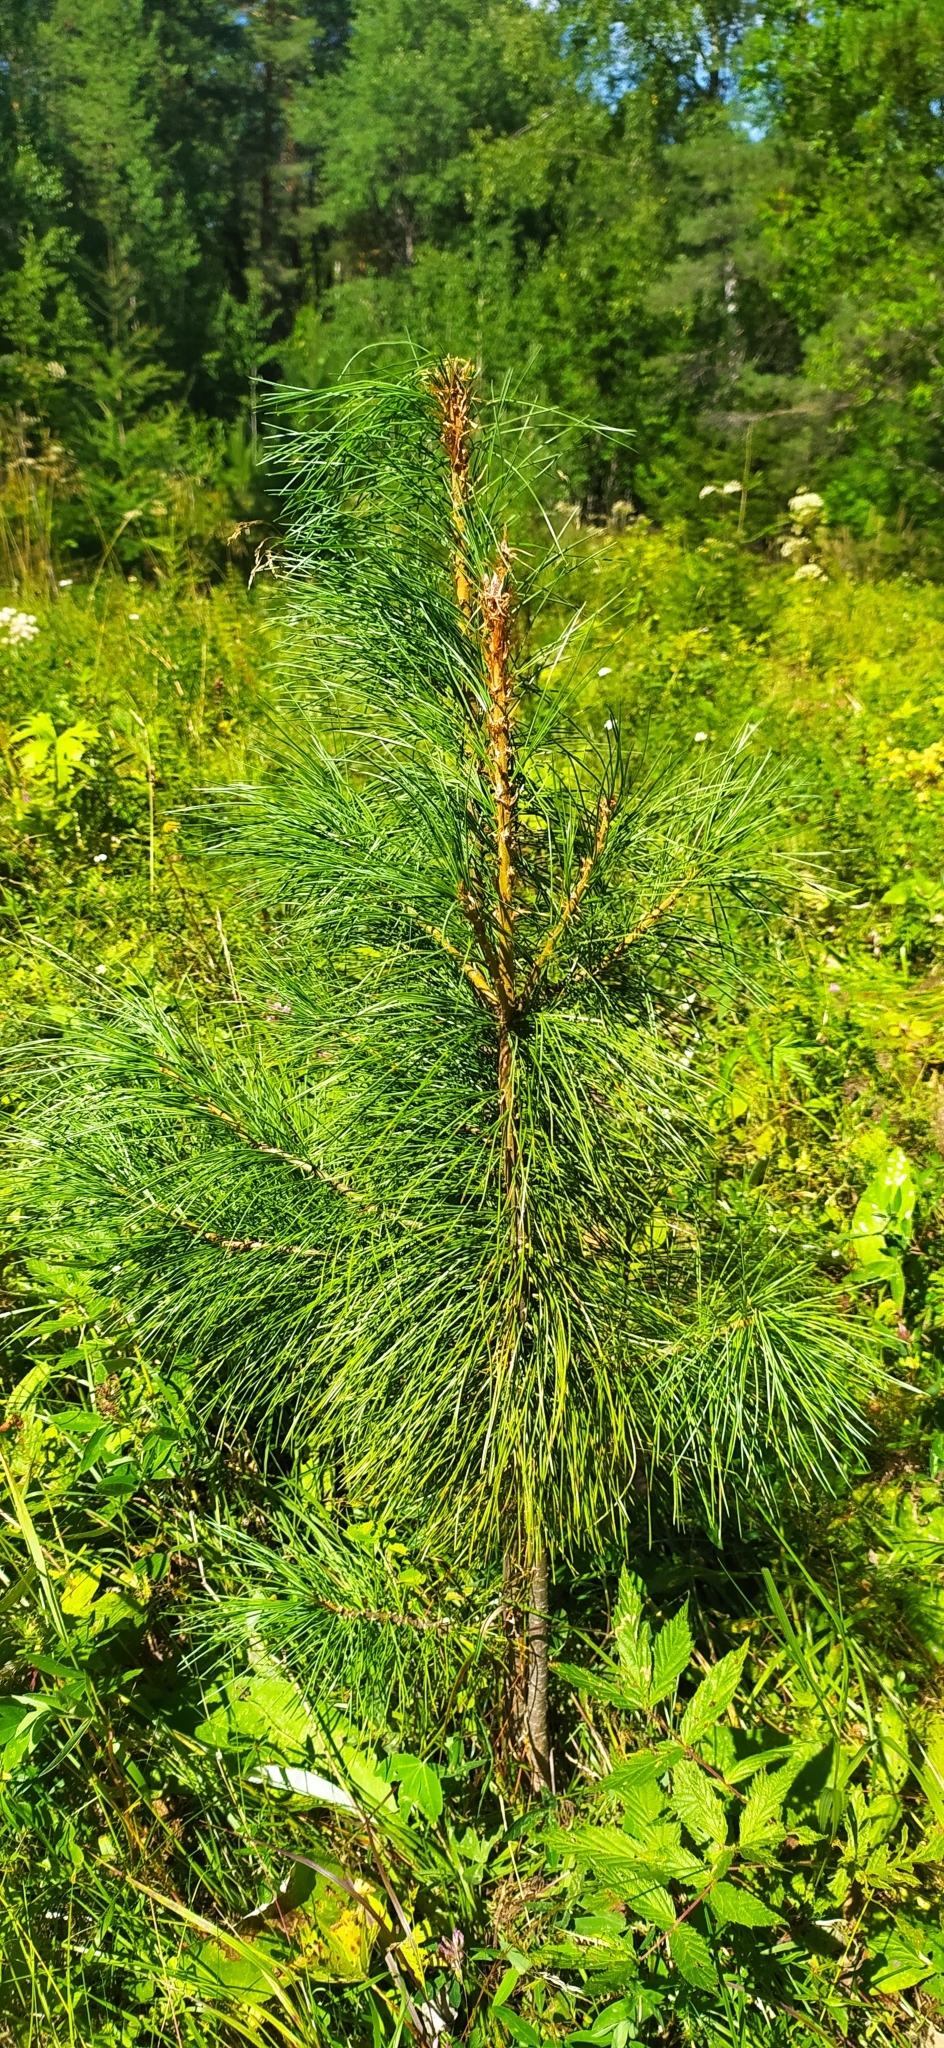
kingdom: Plantae
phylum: Tracheophyta
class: Pinopsida
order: Pinales
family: Pinaceae
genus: Pinus
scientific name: Pinus sibirica
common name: Siberian pine
